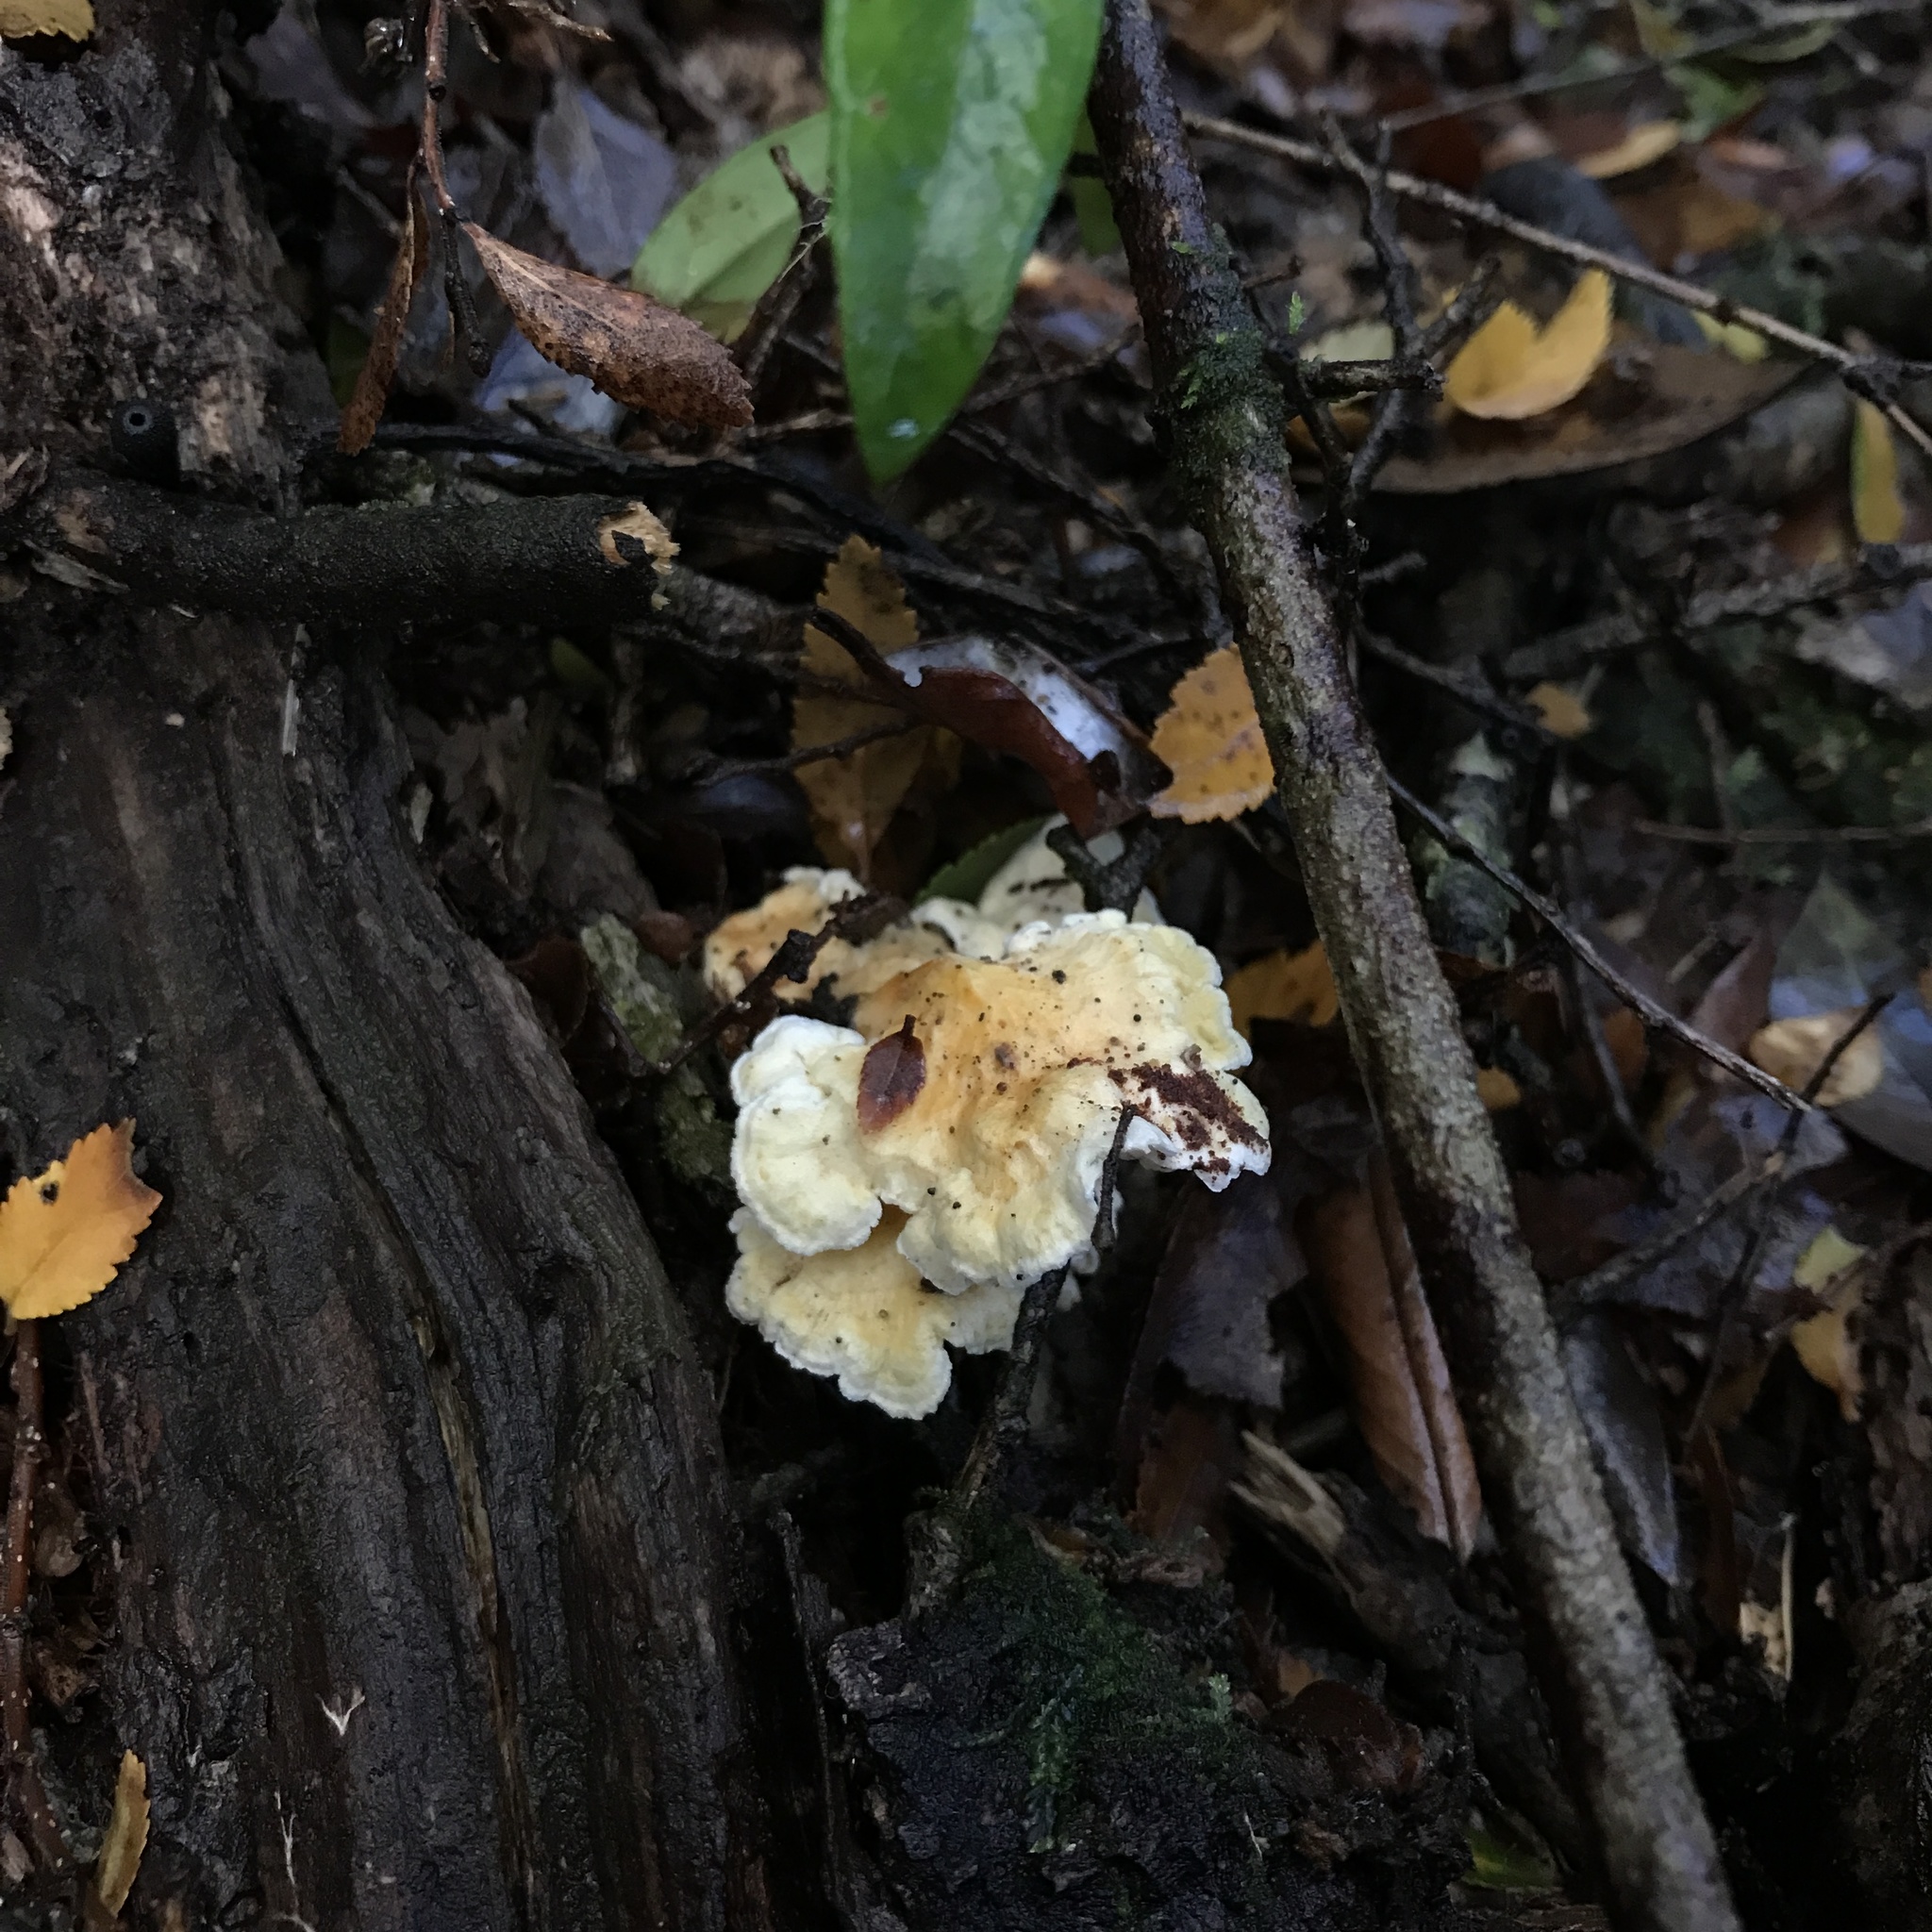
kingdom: Fungi
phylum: Basidiomycota
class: Agaricomycetes
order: Amylocorticiales
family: Amylocorticiaceae
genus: Podoserpula
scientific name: Podoserpula aliweni
